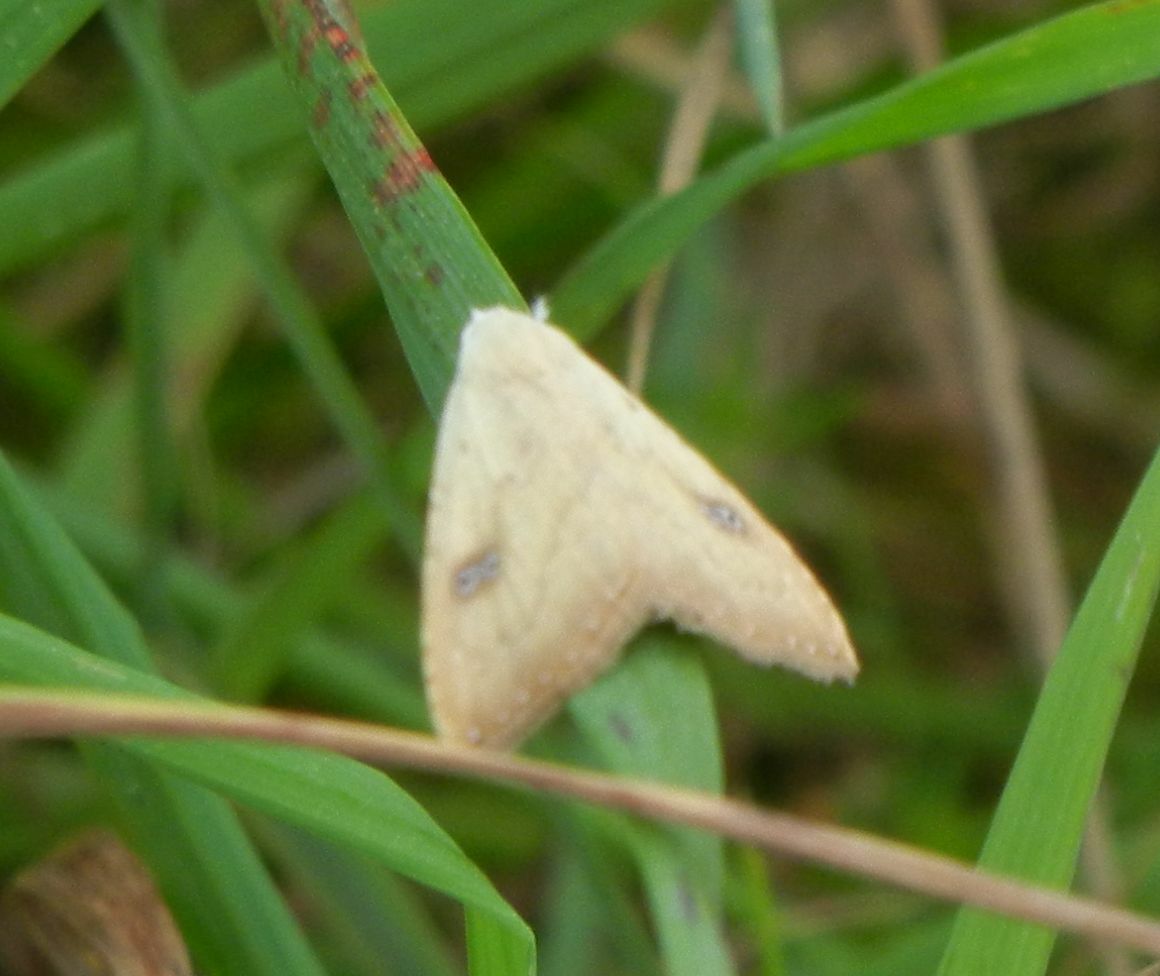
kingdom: Animalia
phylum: Arthropoda
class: Insecta
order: Lepidoptera
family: Erebidae
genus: Rivula
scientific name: Rivula sericealis
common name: Straw dot
